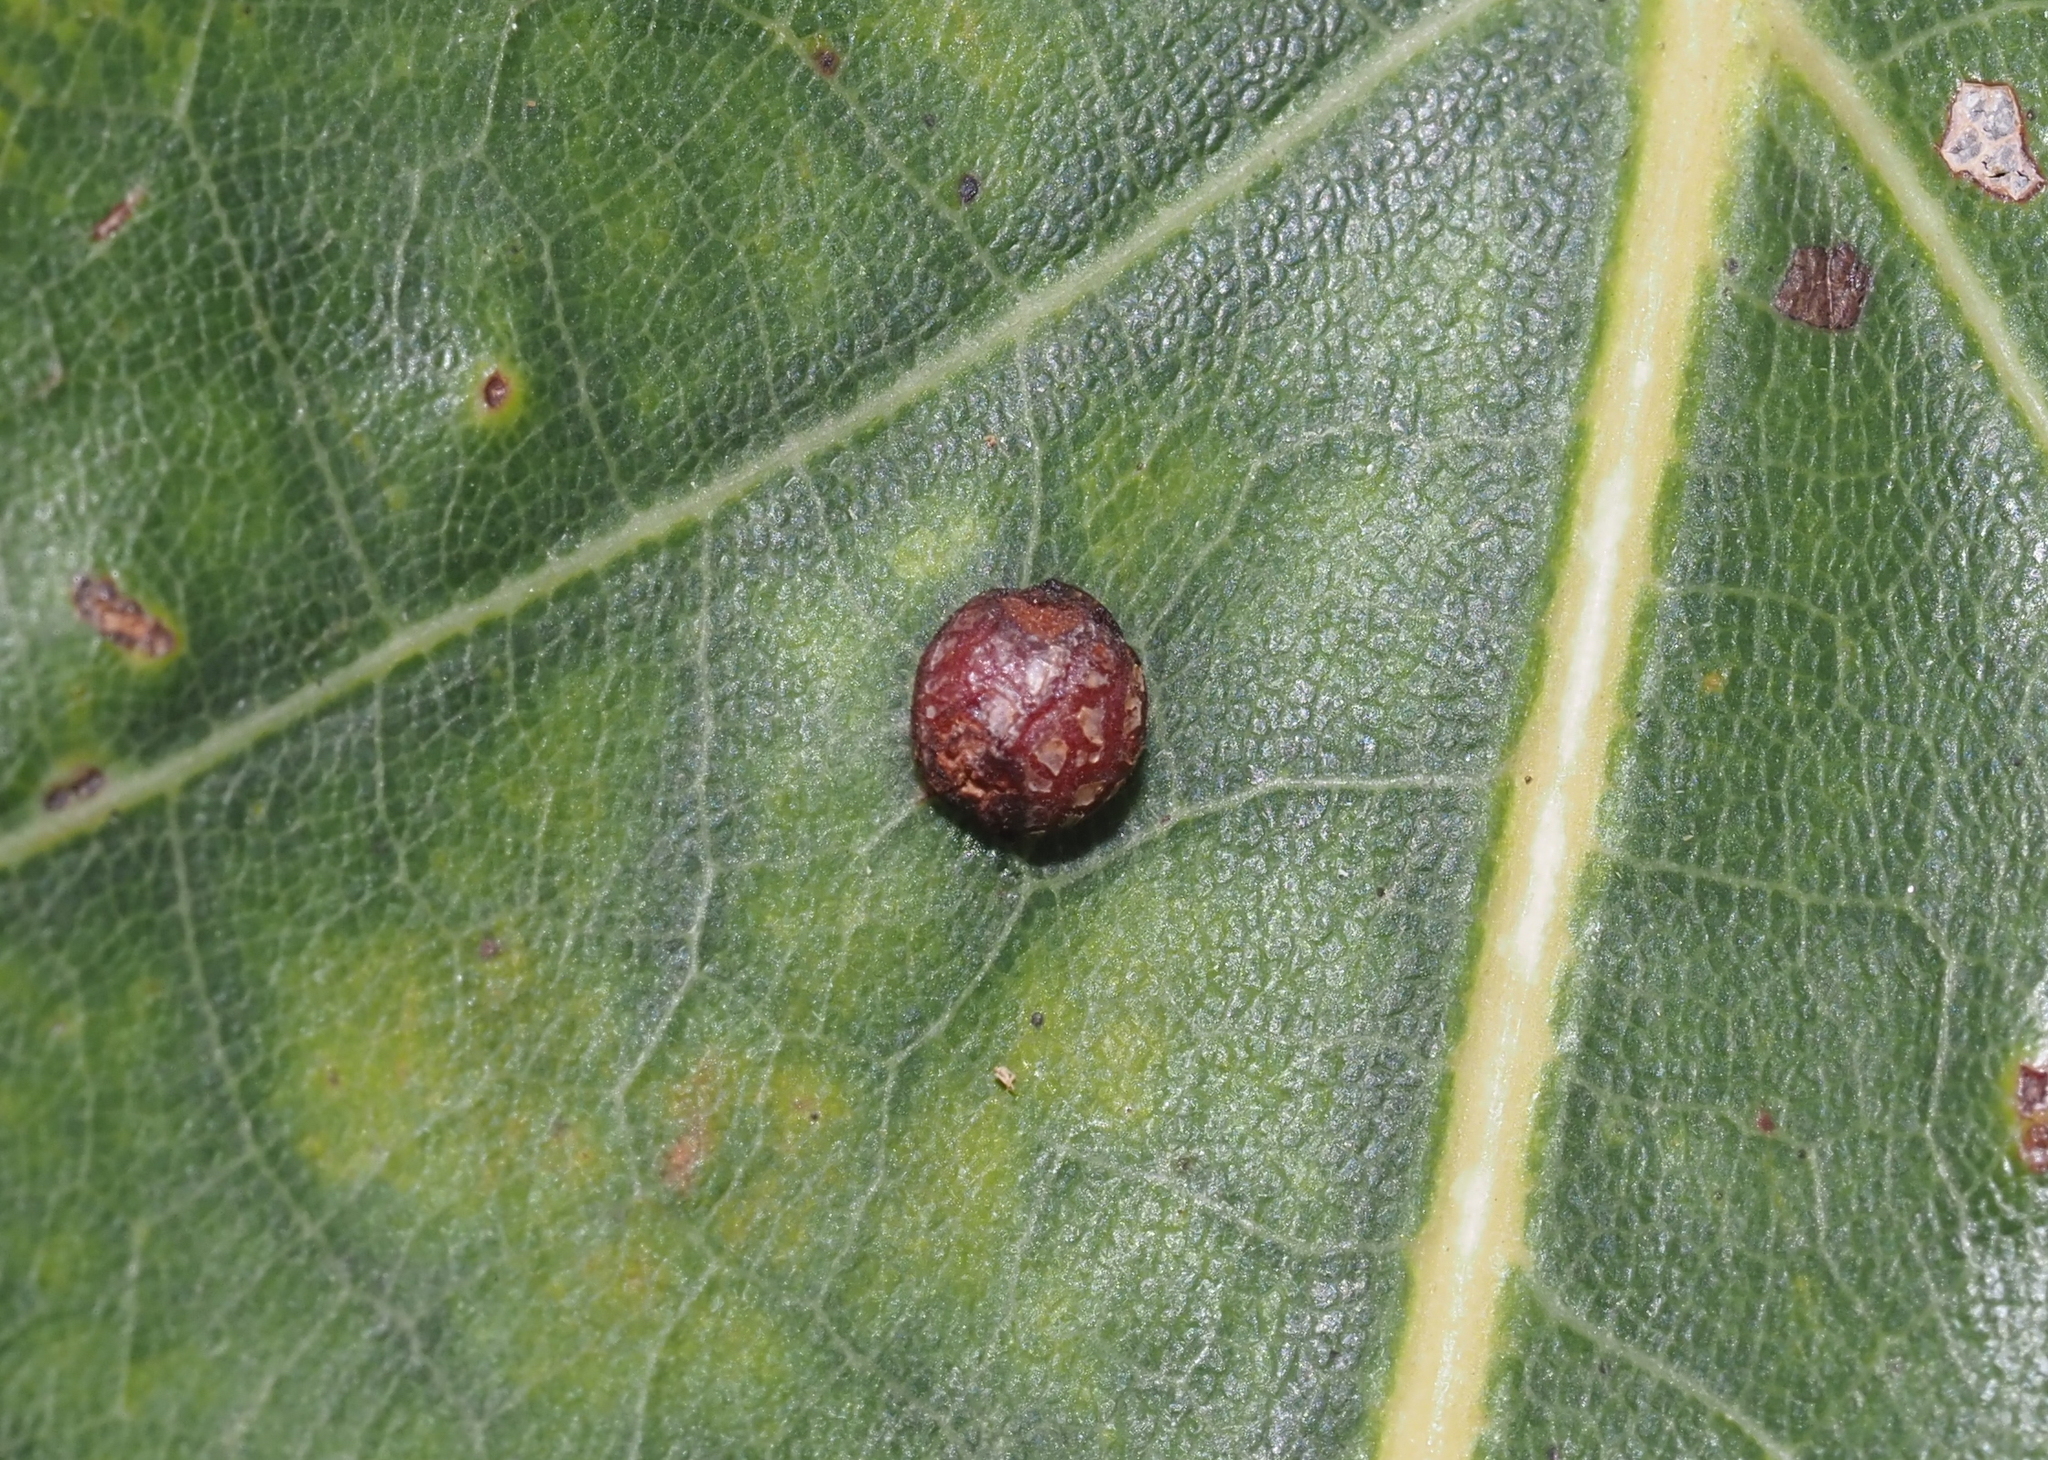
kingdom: Animalia
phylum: Arthropoda
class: Insecta
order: Diptera
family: Cecidomyiidae
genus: Polystepha
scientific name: Polystepha pilulae
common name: Oak leaf gall midge
